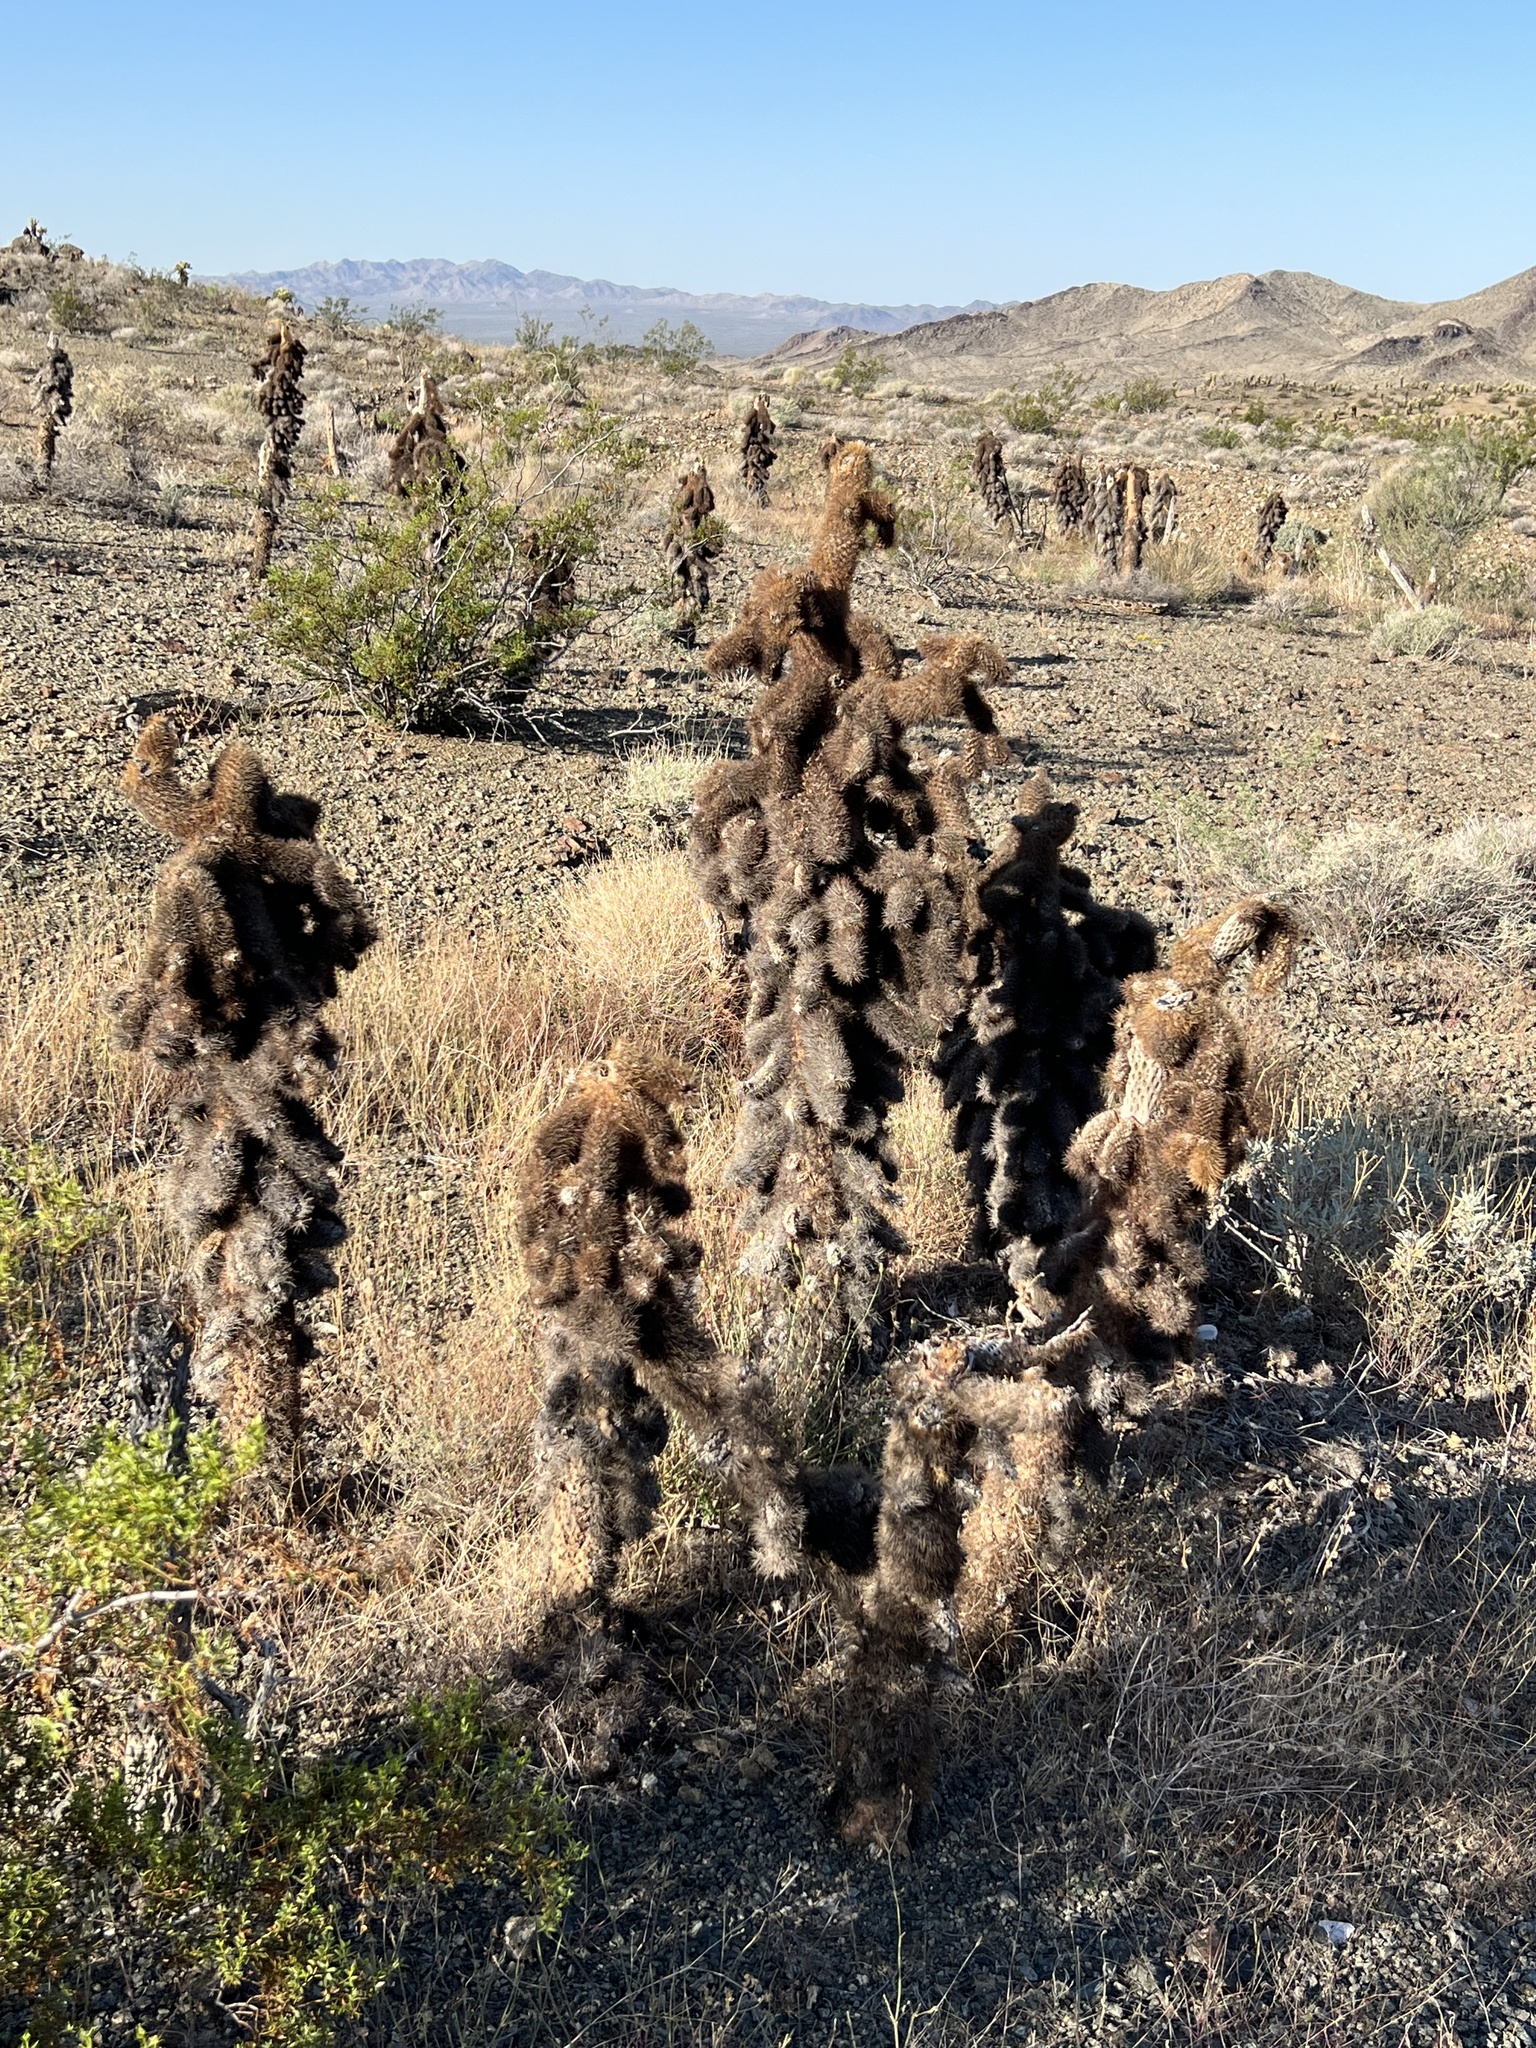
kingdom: Plantae
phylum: Tracheophyta
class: Magnoliopsida
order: Caryophyllales
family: Cactaceae
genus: Cylindropuntia
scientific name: Cylindropuntia fosbergii
